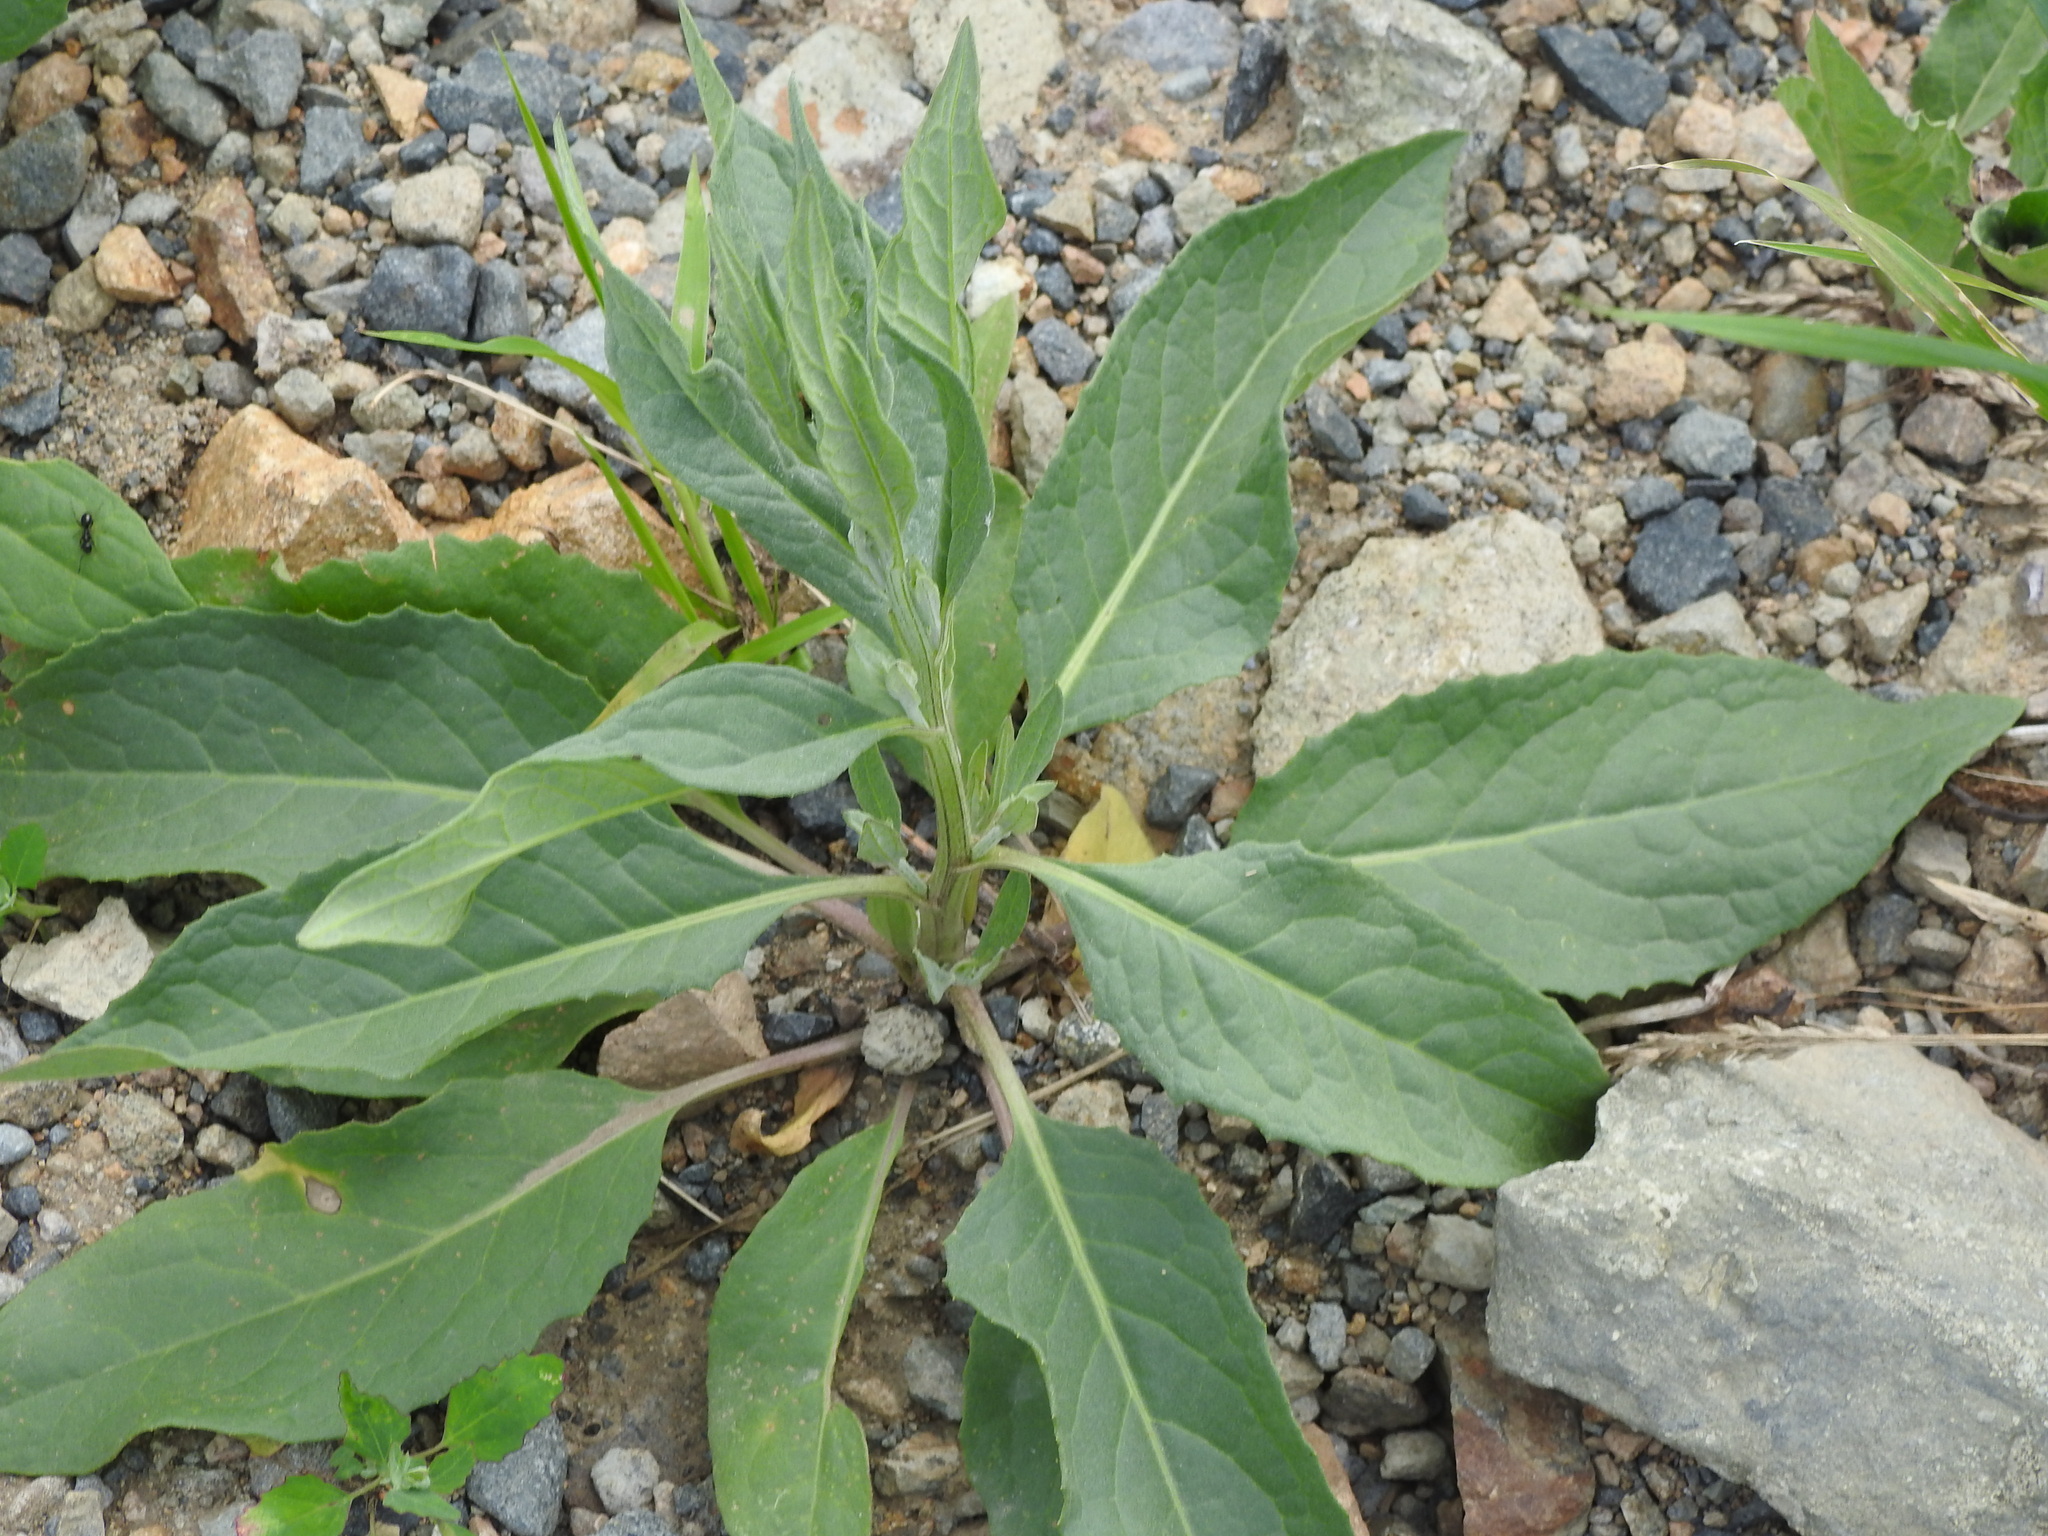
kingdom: Plantae
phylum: Tracheophyta
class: Magnoliopsida
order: Asterales
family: Asteraceae
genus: Saussurea
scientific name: Saussurea amara
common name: Alberta sawwort
